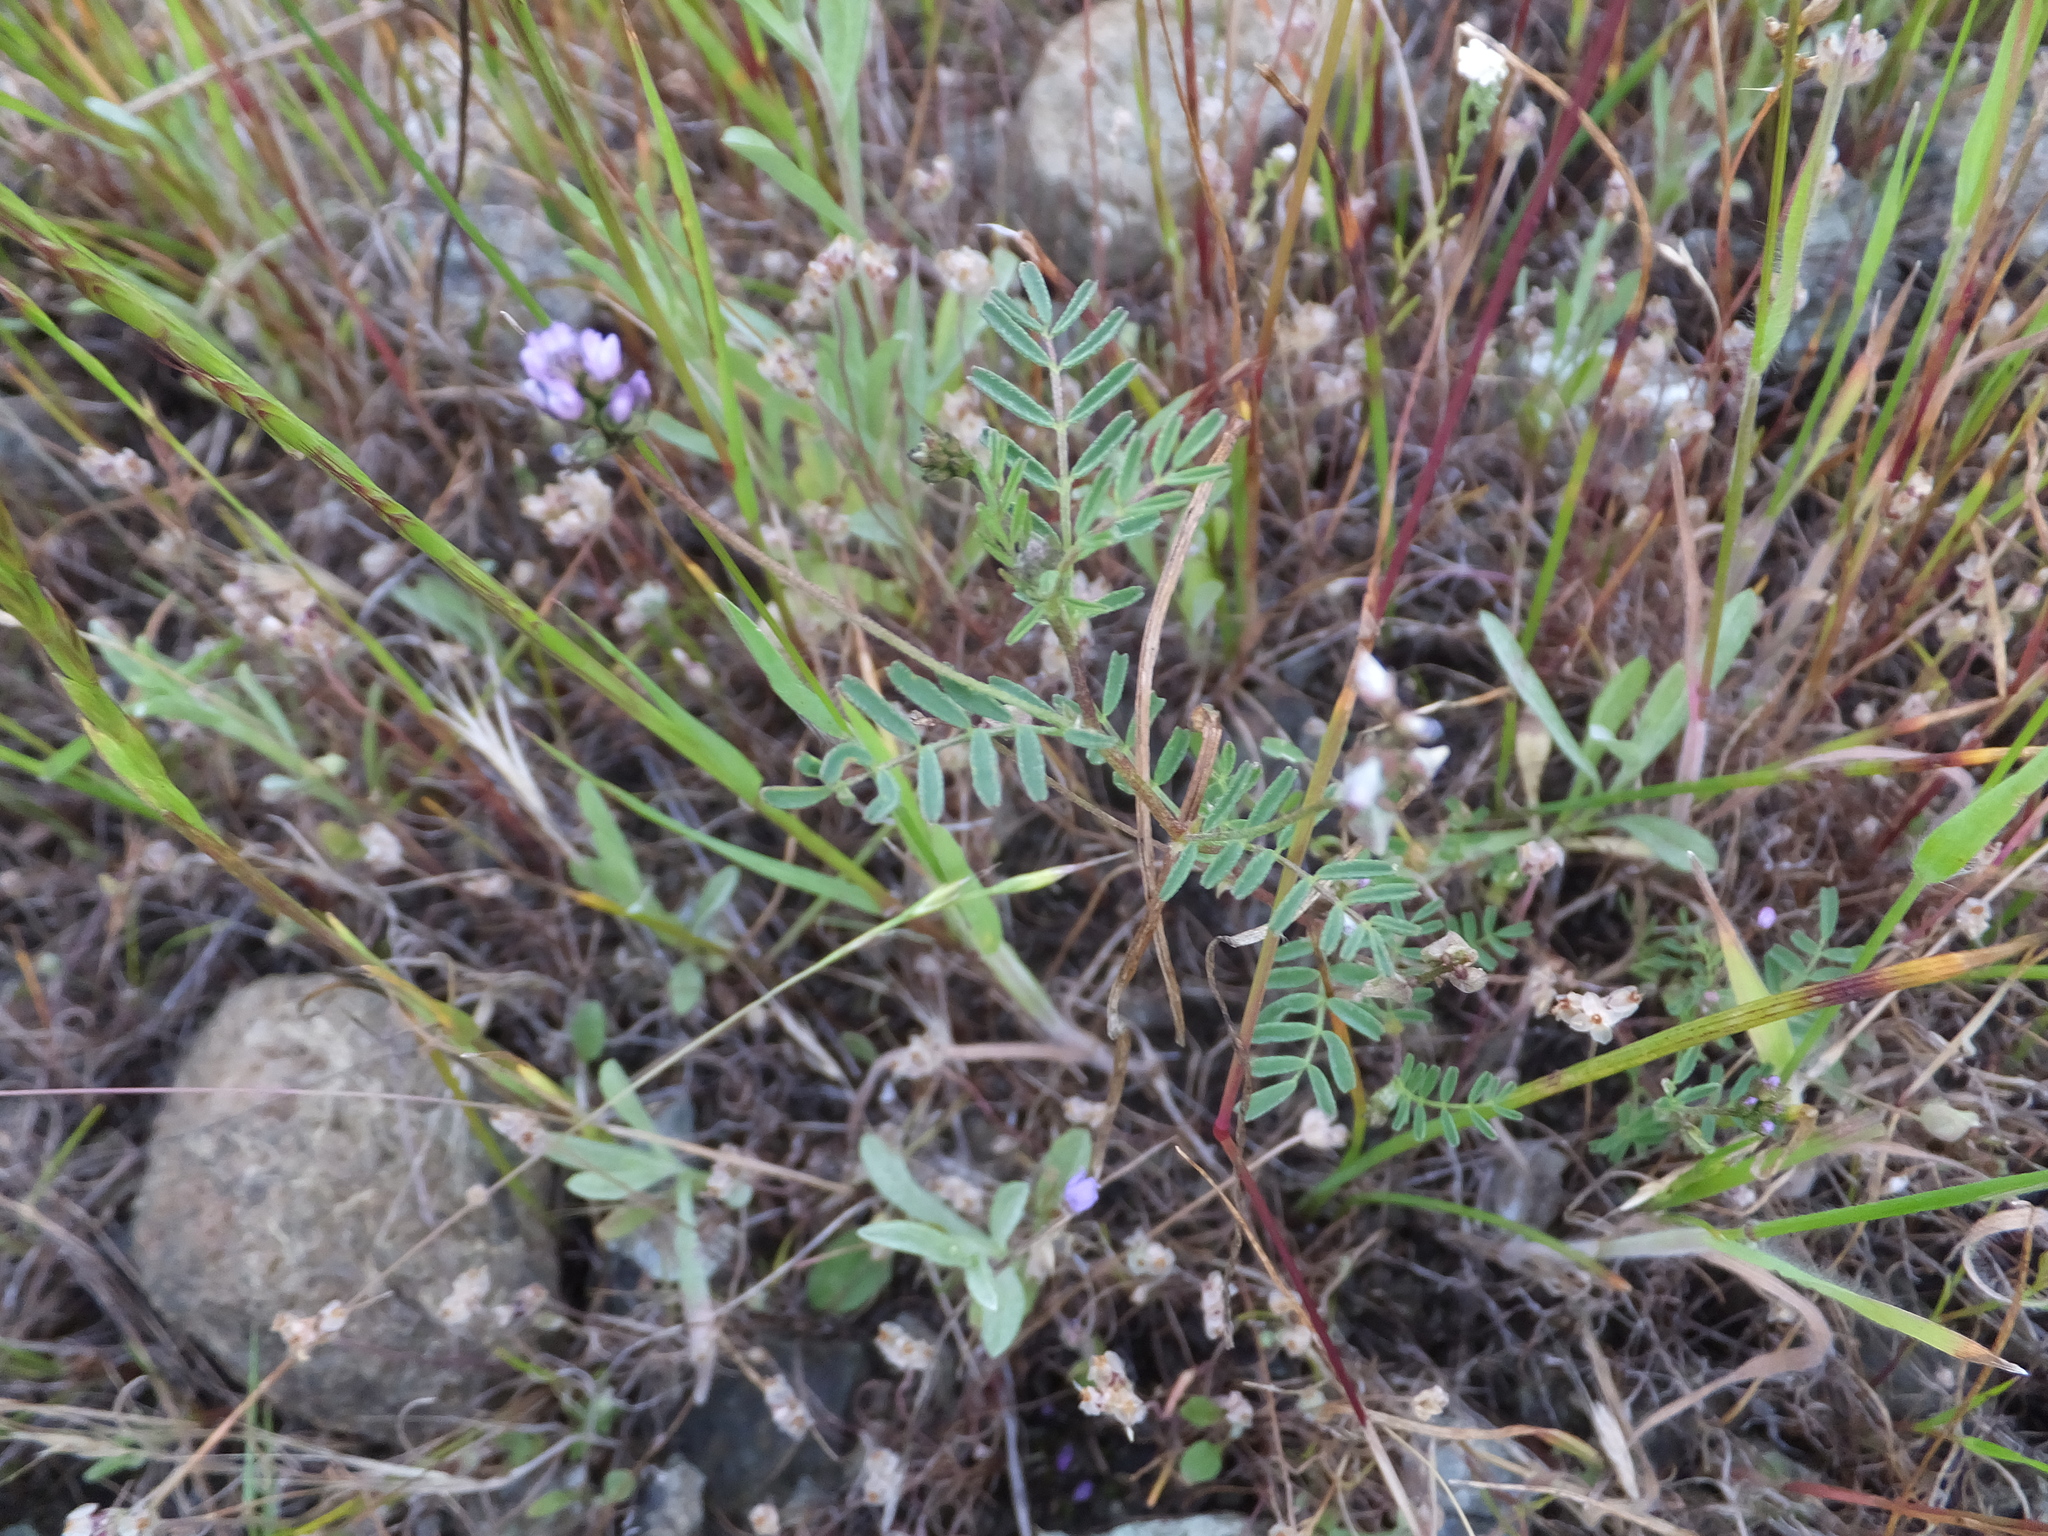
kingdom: Plantae
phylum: Tracheophyta
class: Magnoliopsida
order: Fabales
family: Fabaceae
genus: Astragalus
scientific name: Astragalus gambelianus
